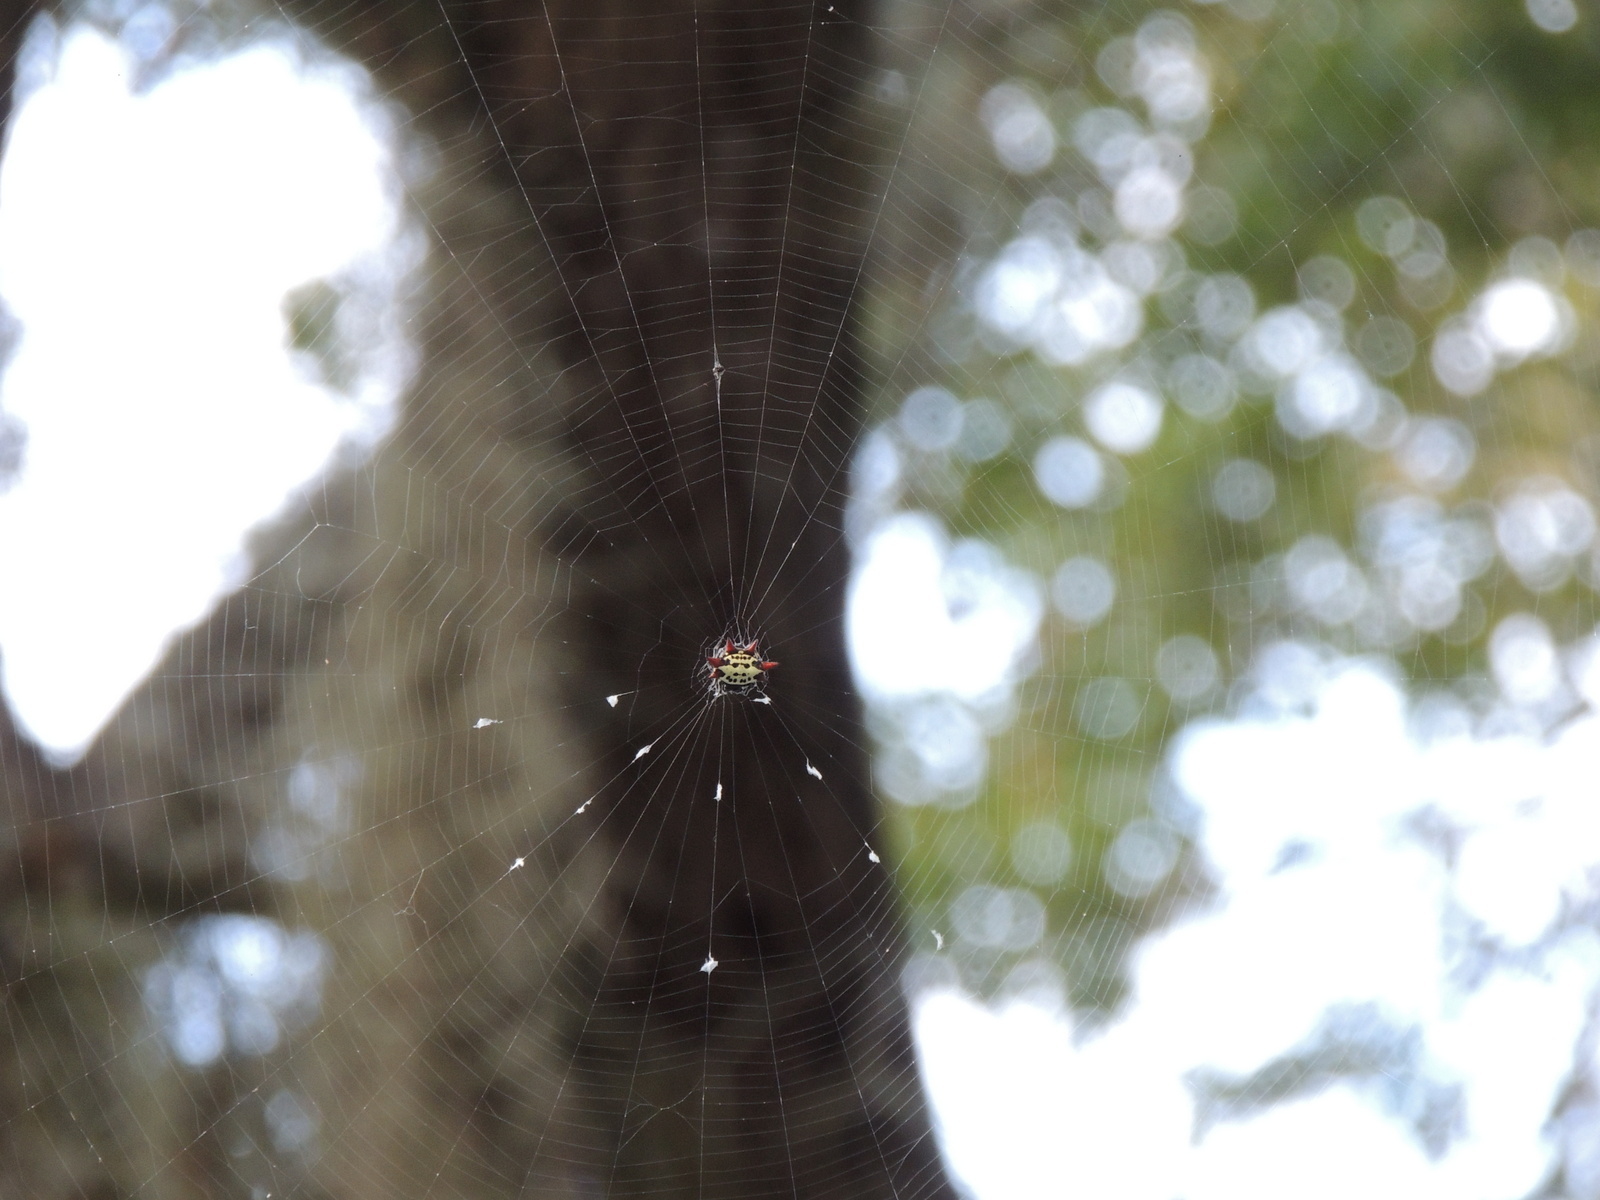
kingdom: Animalia
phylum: Arthropoda
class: Arachnida
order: Araneae
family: Araneidae
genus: Gasteracantha
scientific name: Gasteracantha cancriformis
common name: Orb weavers
